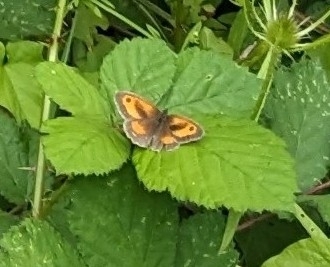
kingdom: Animalia
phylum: Arthropoda
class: Insecta
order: Lepidoptera
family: Nymphalidae
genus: Pyronia
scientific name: Pyronia tithonus
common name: Gatekeeper
